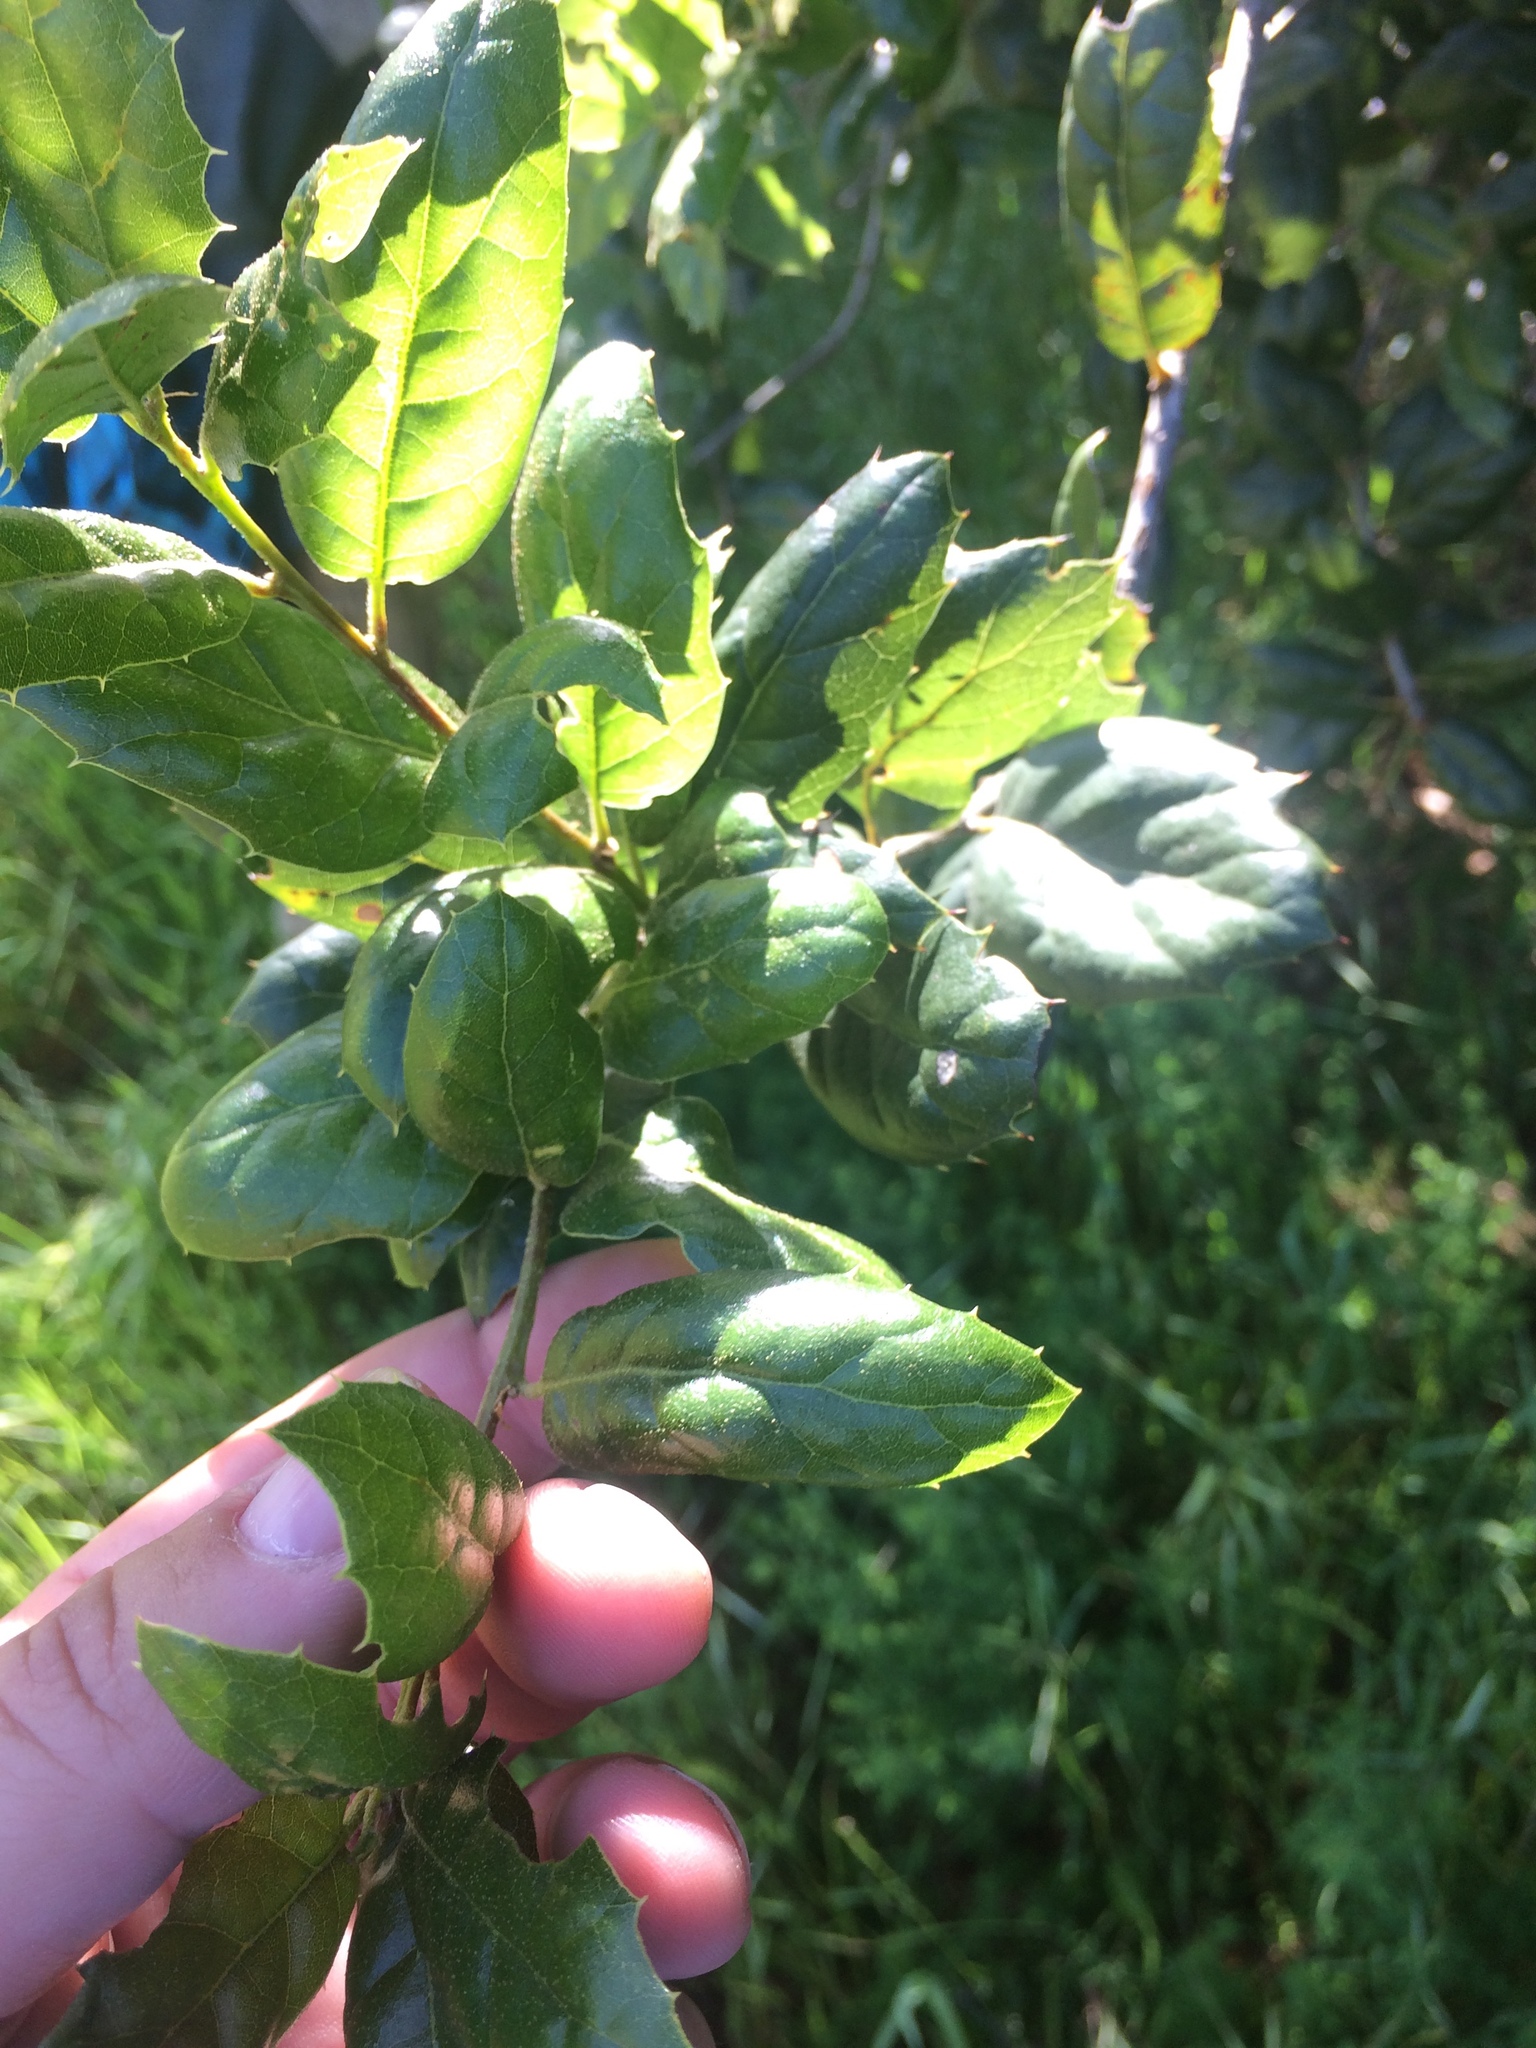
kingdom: Plantae
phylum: Tracheophyta
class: Magnoliopsida
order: Fagales
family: Fagaceae
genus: Quercus
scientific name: Quercus agrifolia
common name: California live oak
